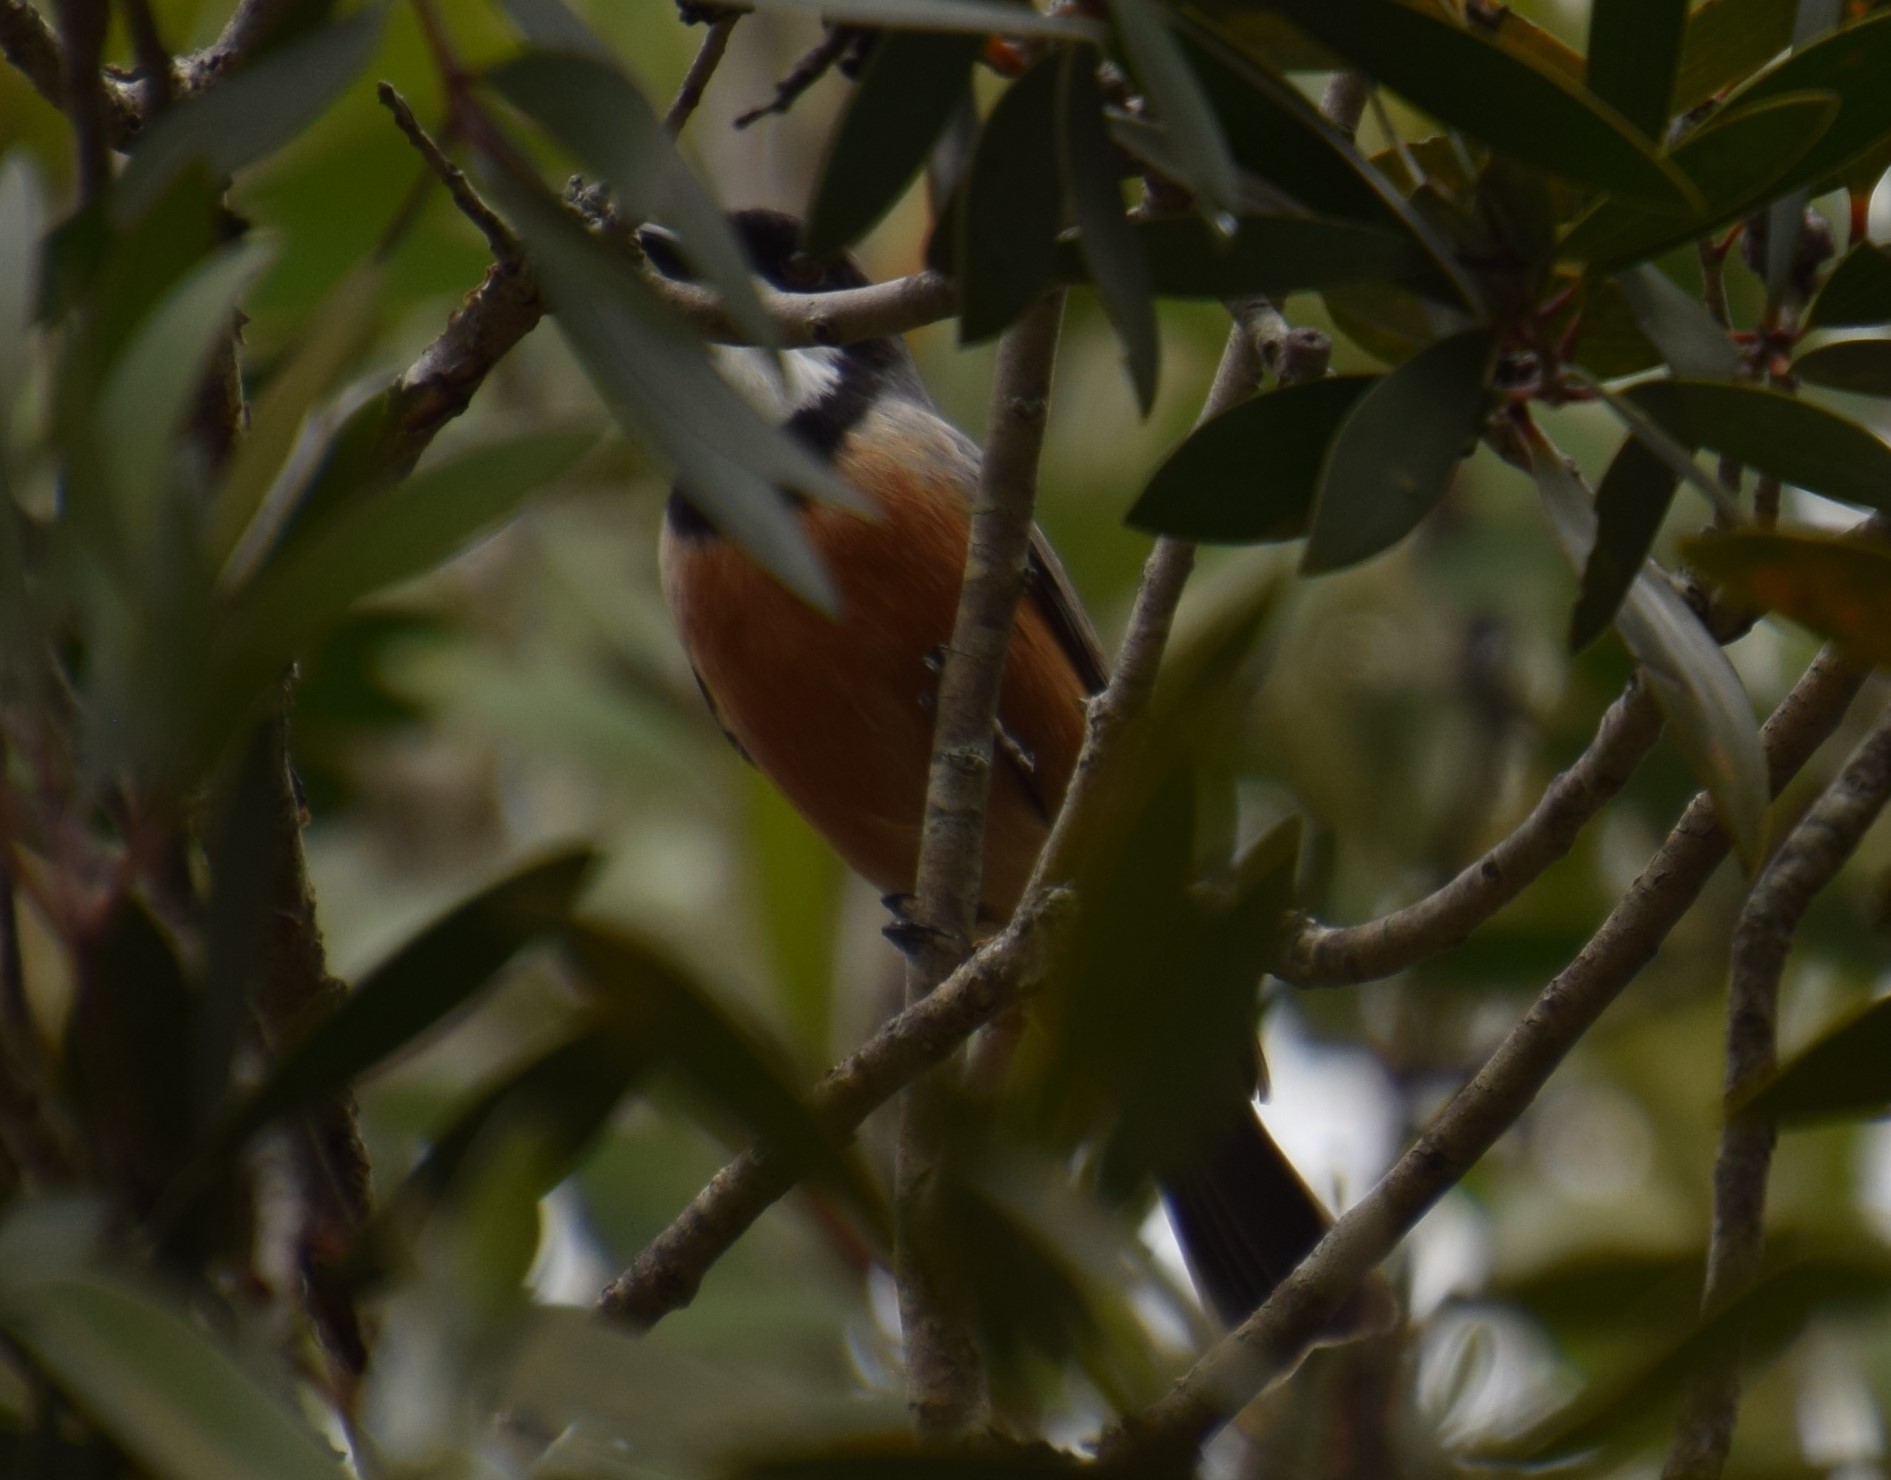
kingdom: Animalia
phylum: Chordata
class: Aves
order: Passeriformes
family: Pachycephalidae
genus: Pachycephala
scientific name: Pachycephala rufiventris
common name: Rufous whistler
